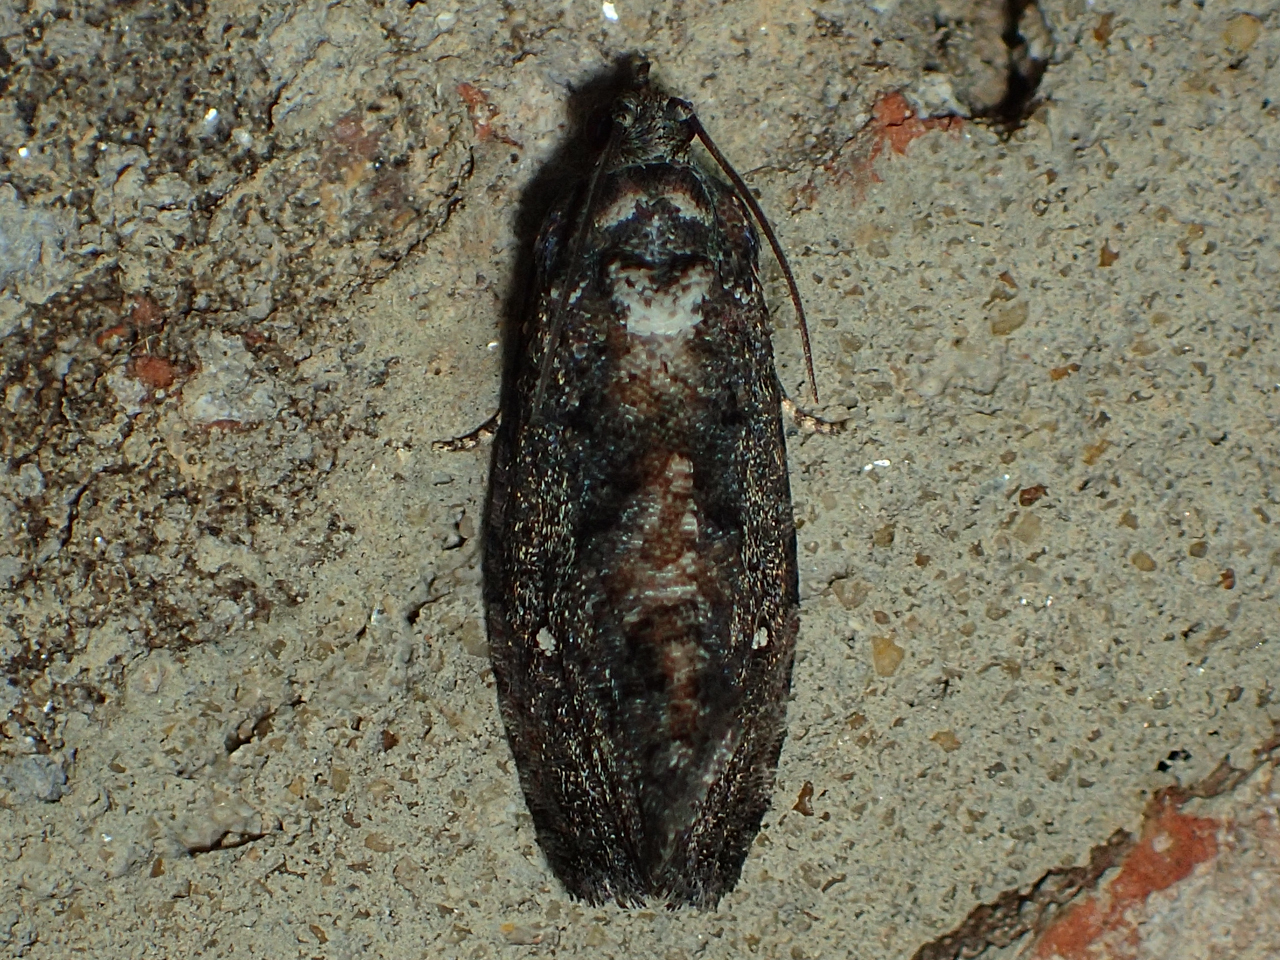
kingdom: Animalia
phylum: Arthropoda
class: Insecta
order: Lepidoptera
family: Tortricidae
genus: Gymnandrosoma
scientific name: Gymnandrosoma punctidiscanum
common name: Dotted ecdytolopha moth
